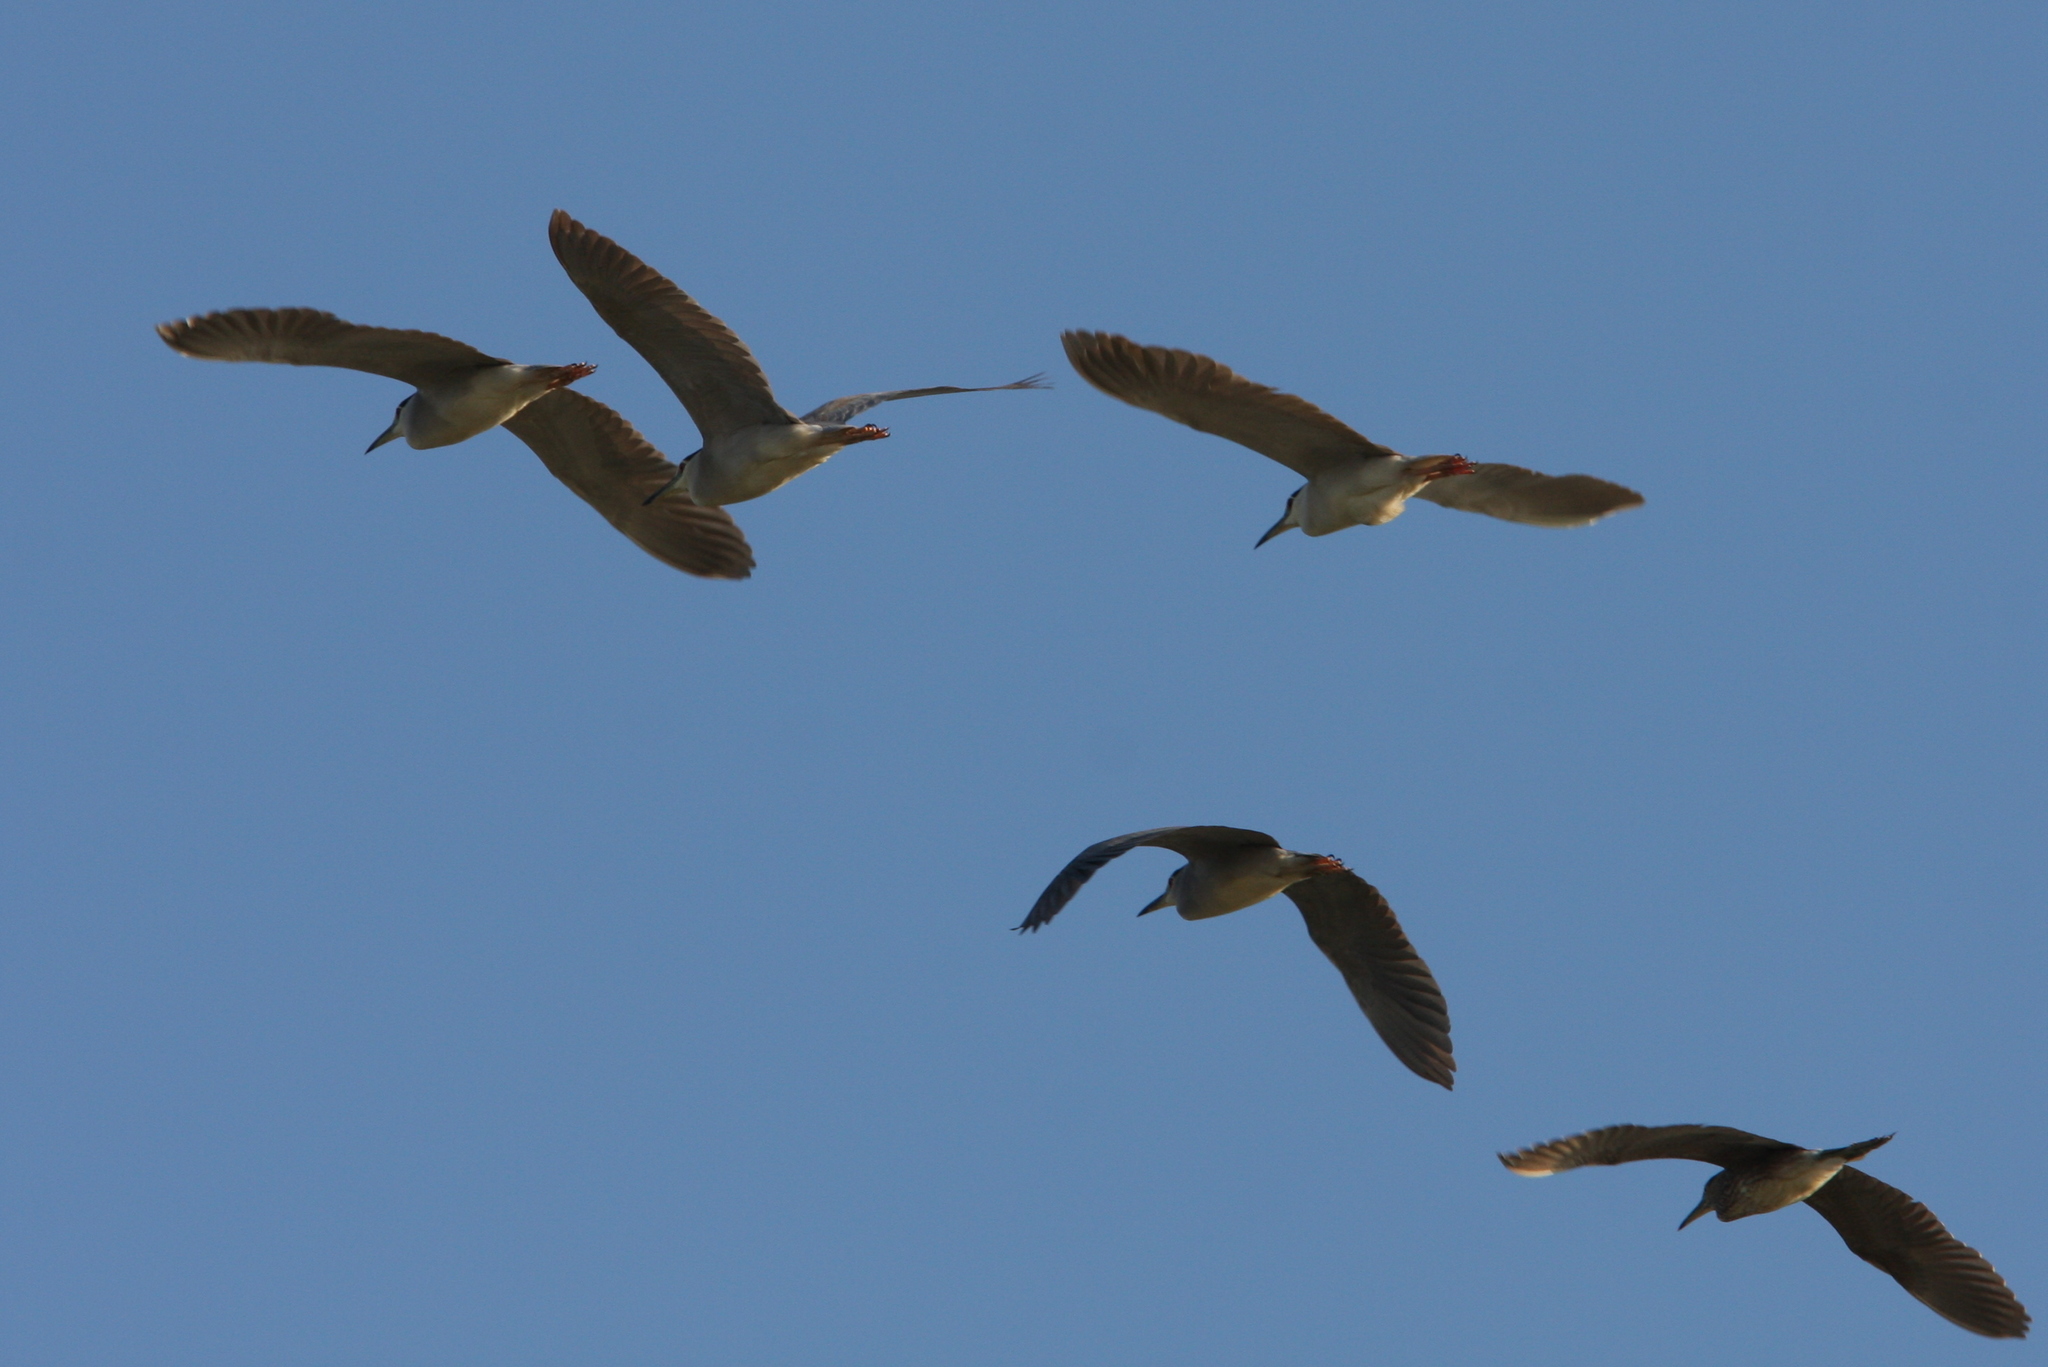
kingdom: Animalia
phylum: Chordata
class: Aves
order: Pelecaniformes
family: Ardeidae
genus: Nycticorax
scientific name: Nycticorax nycticorax
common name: Black-crowned night heron
